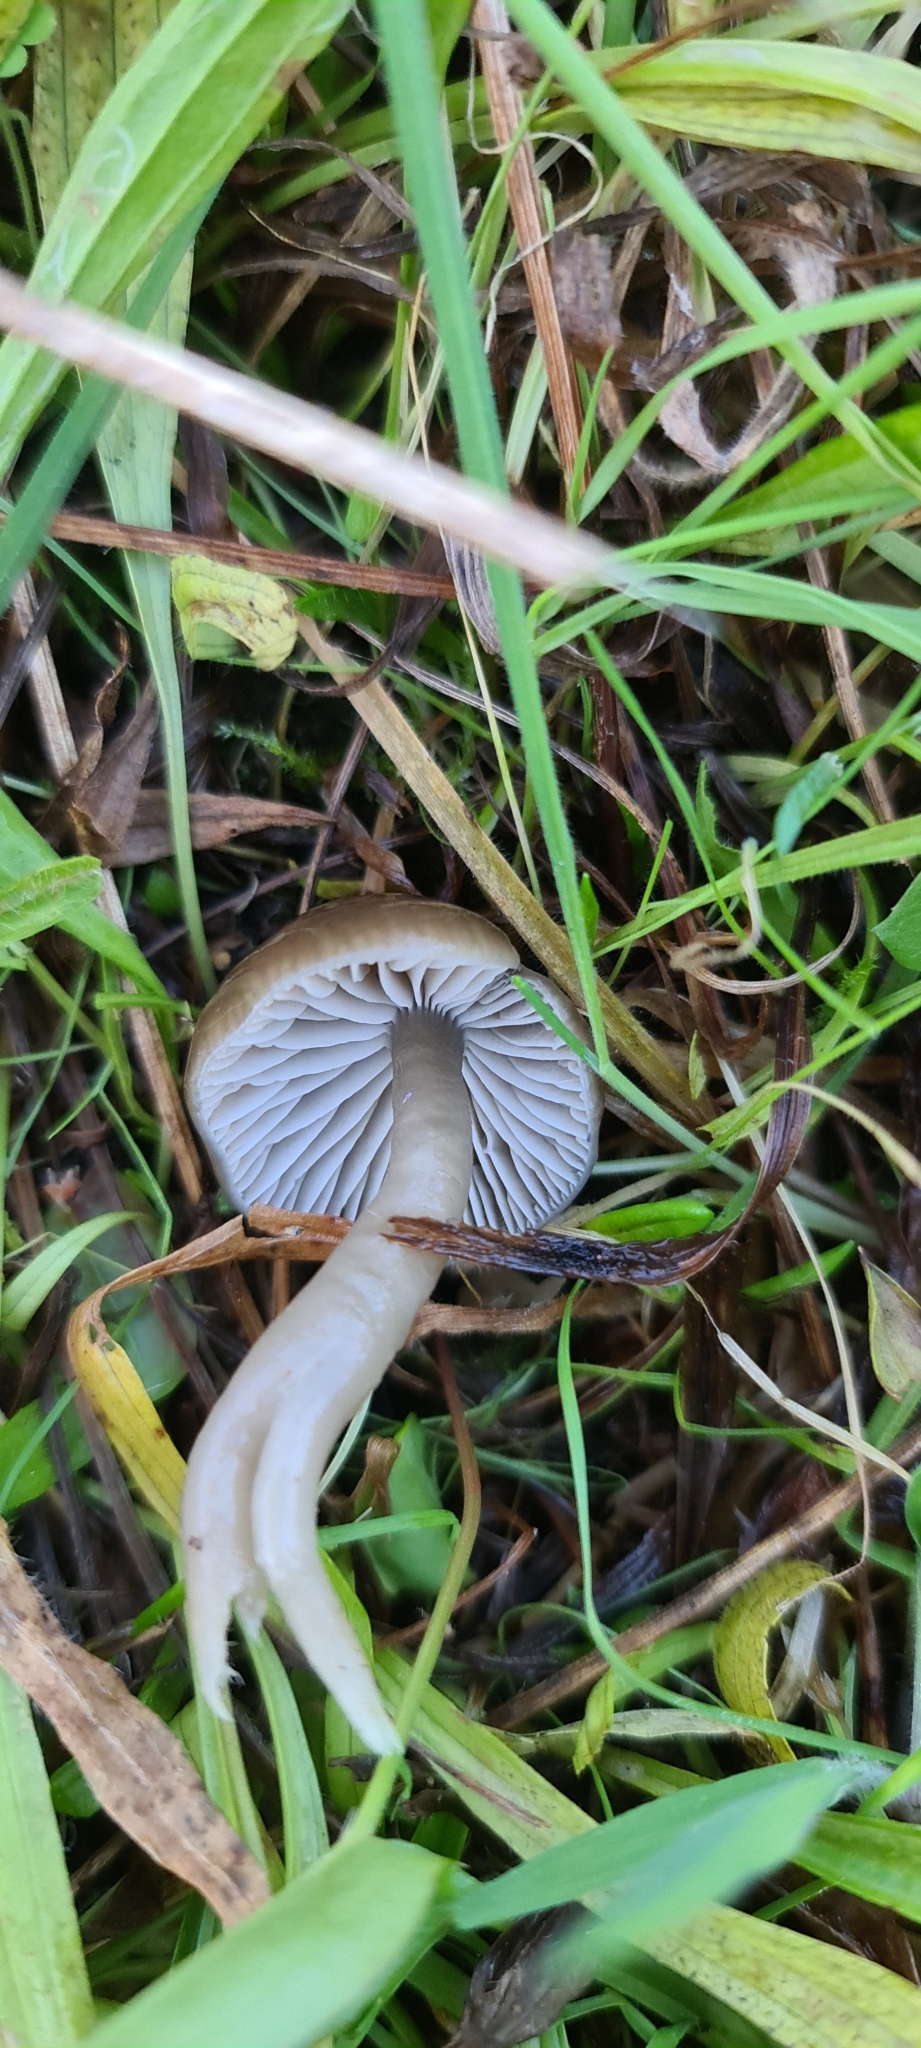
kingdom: Fungi
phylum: Basidiomycota
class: Agaricomycetes
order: Agaricales
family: Hygrophoraceae
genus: Gliophorus
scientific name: Gliophorus irrigatus
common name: Slimy waxcap
